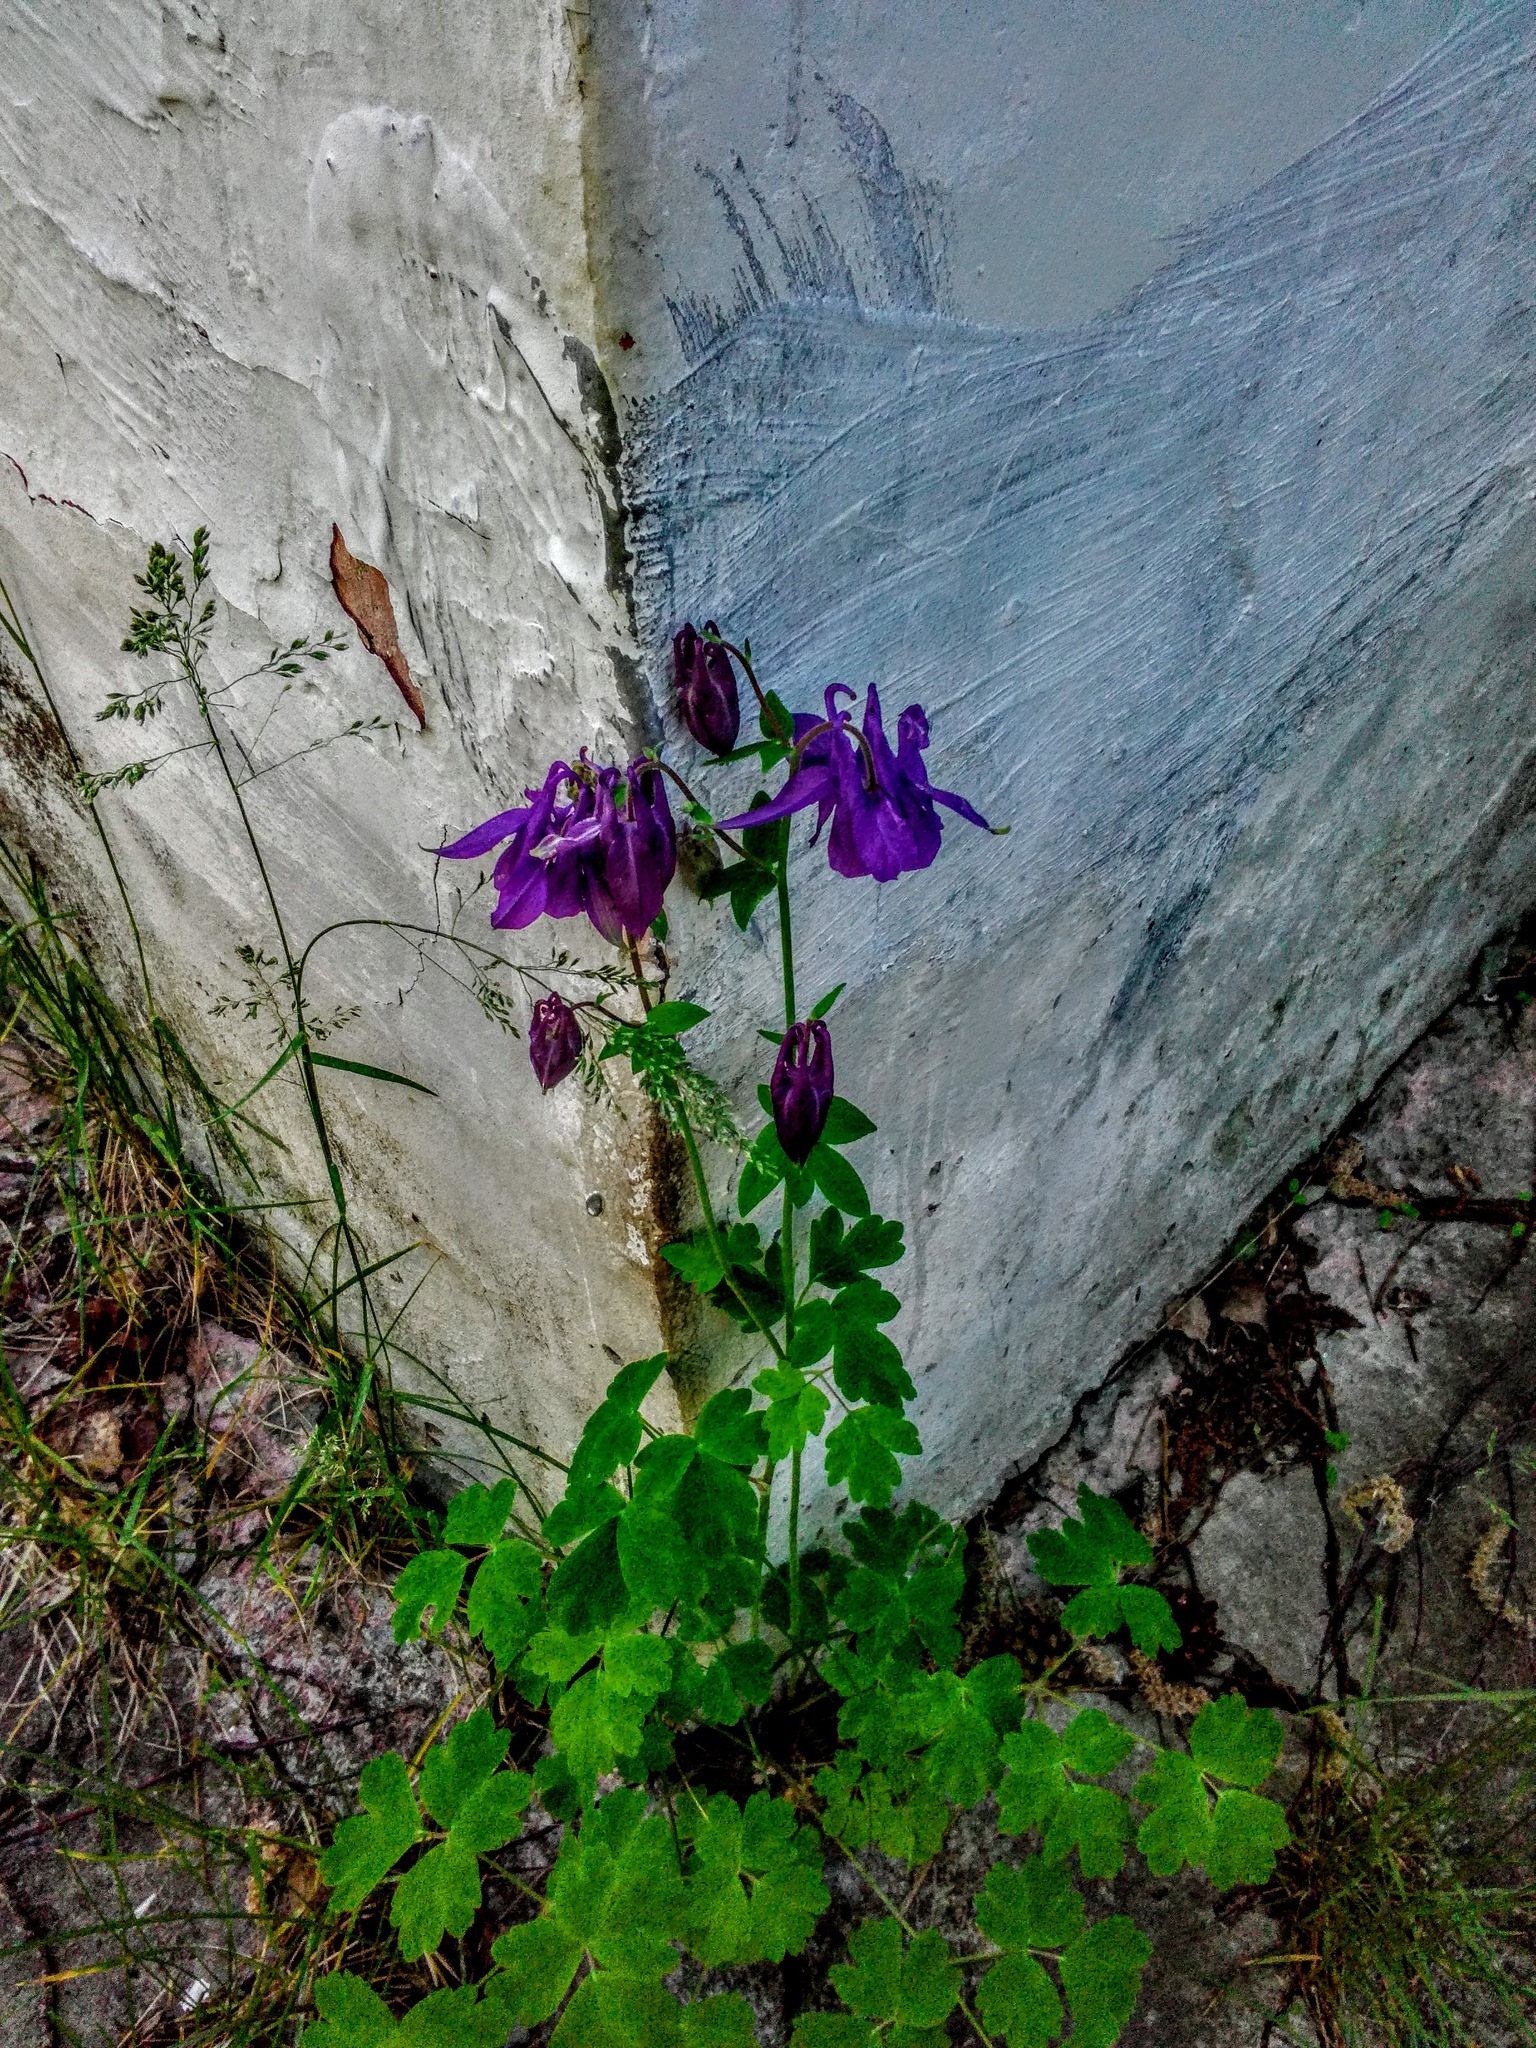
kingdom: Plantae
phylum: Tracheophyta
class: Magnoliopsida
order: Ranunculales
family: Ranunculaceae
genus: Aquilegia
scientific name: Aquilegia vulgaris
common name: Columbine
